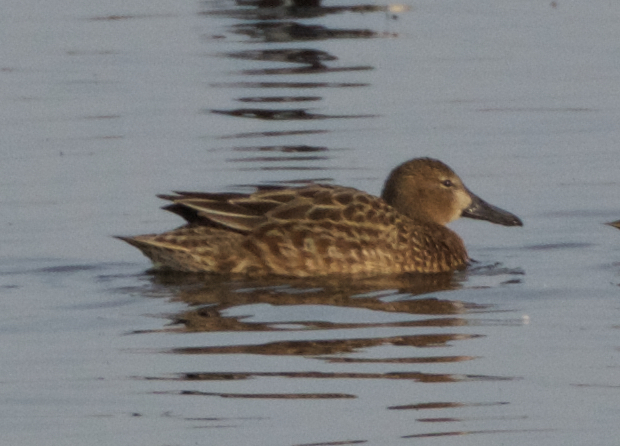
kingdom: Animalia
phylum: Chordata
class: Aves
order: Anseriformes
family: Anatidae
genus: Spatula
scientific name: Spatula cyanoptera
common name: Cinnamon teal
